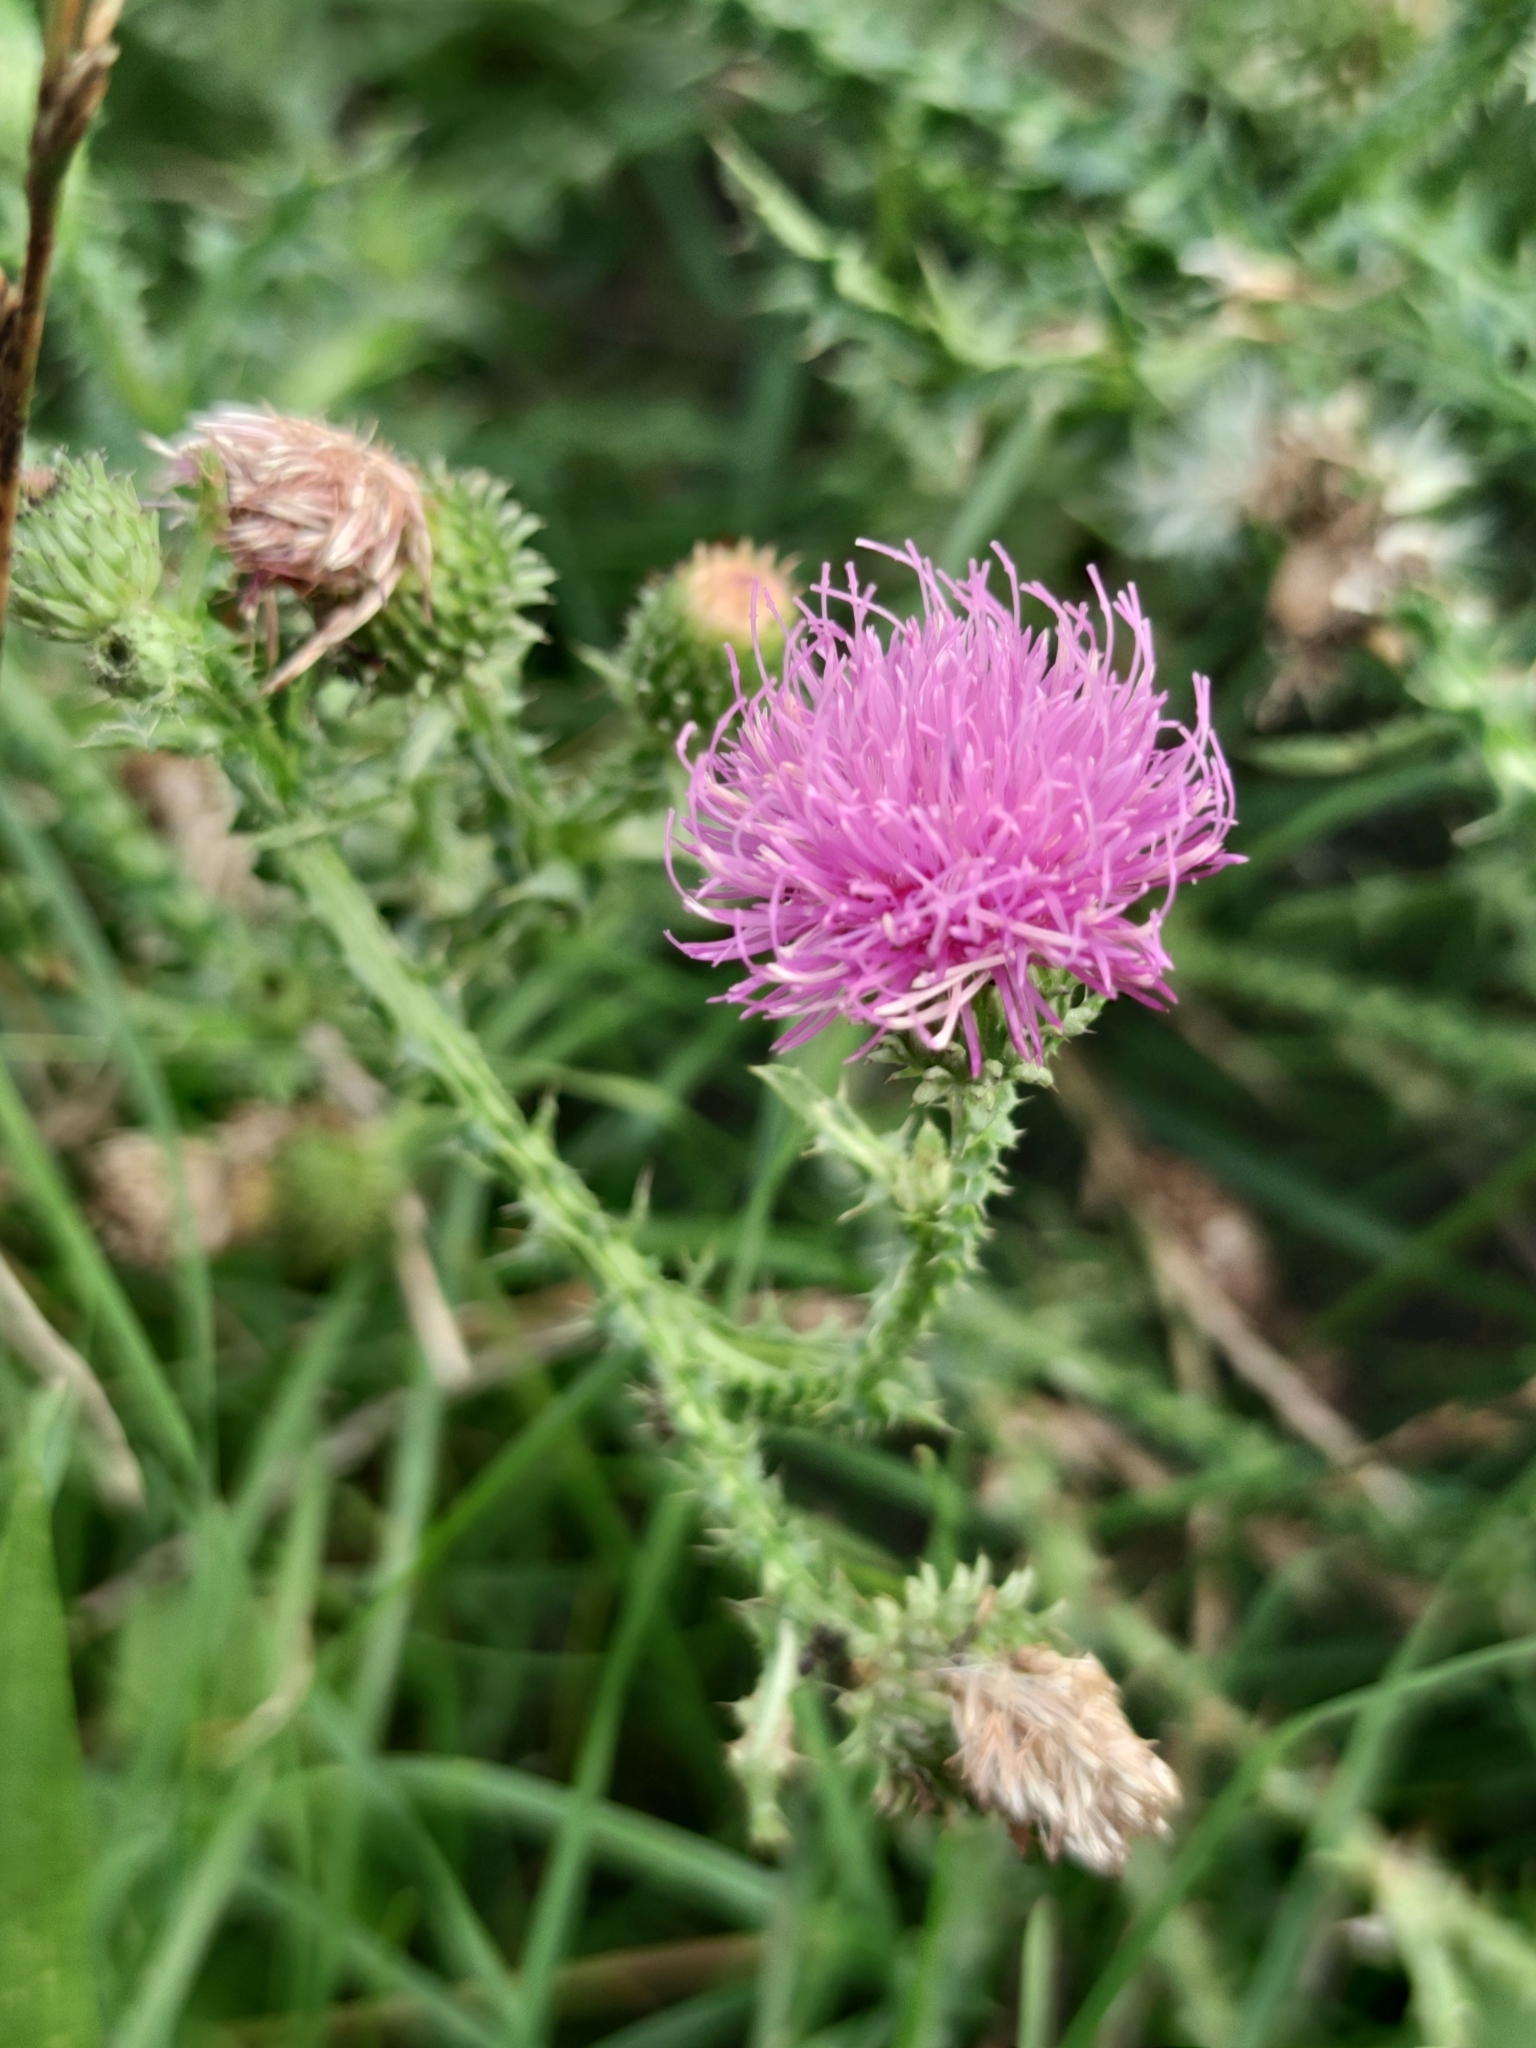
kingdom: Plantae
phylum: Tracheophyta
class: Magnoliopsida
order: Asterales
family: Asteraceae
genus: Carduus
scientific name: Carduus acanthoides
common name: Plumeless thistle
